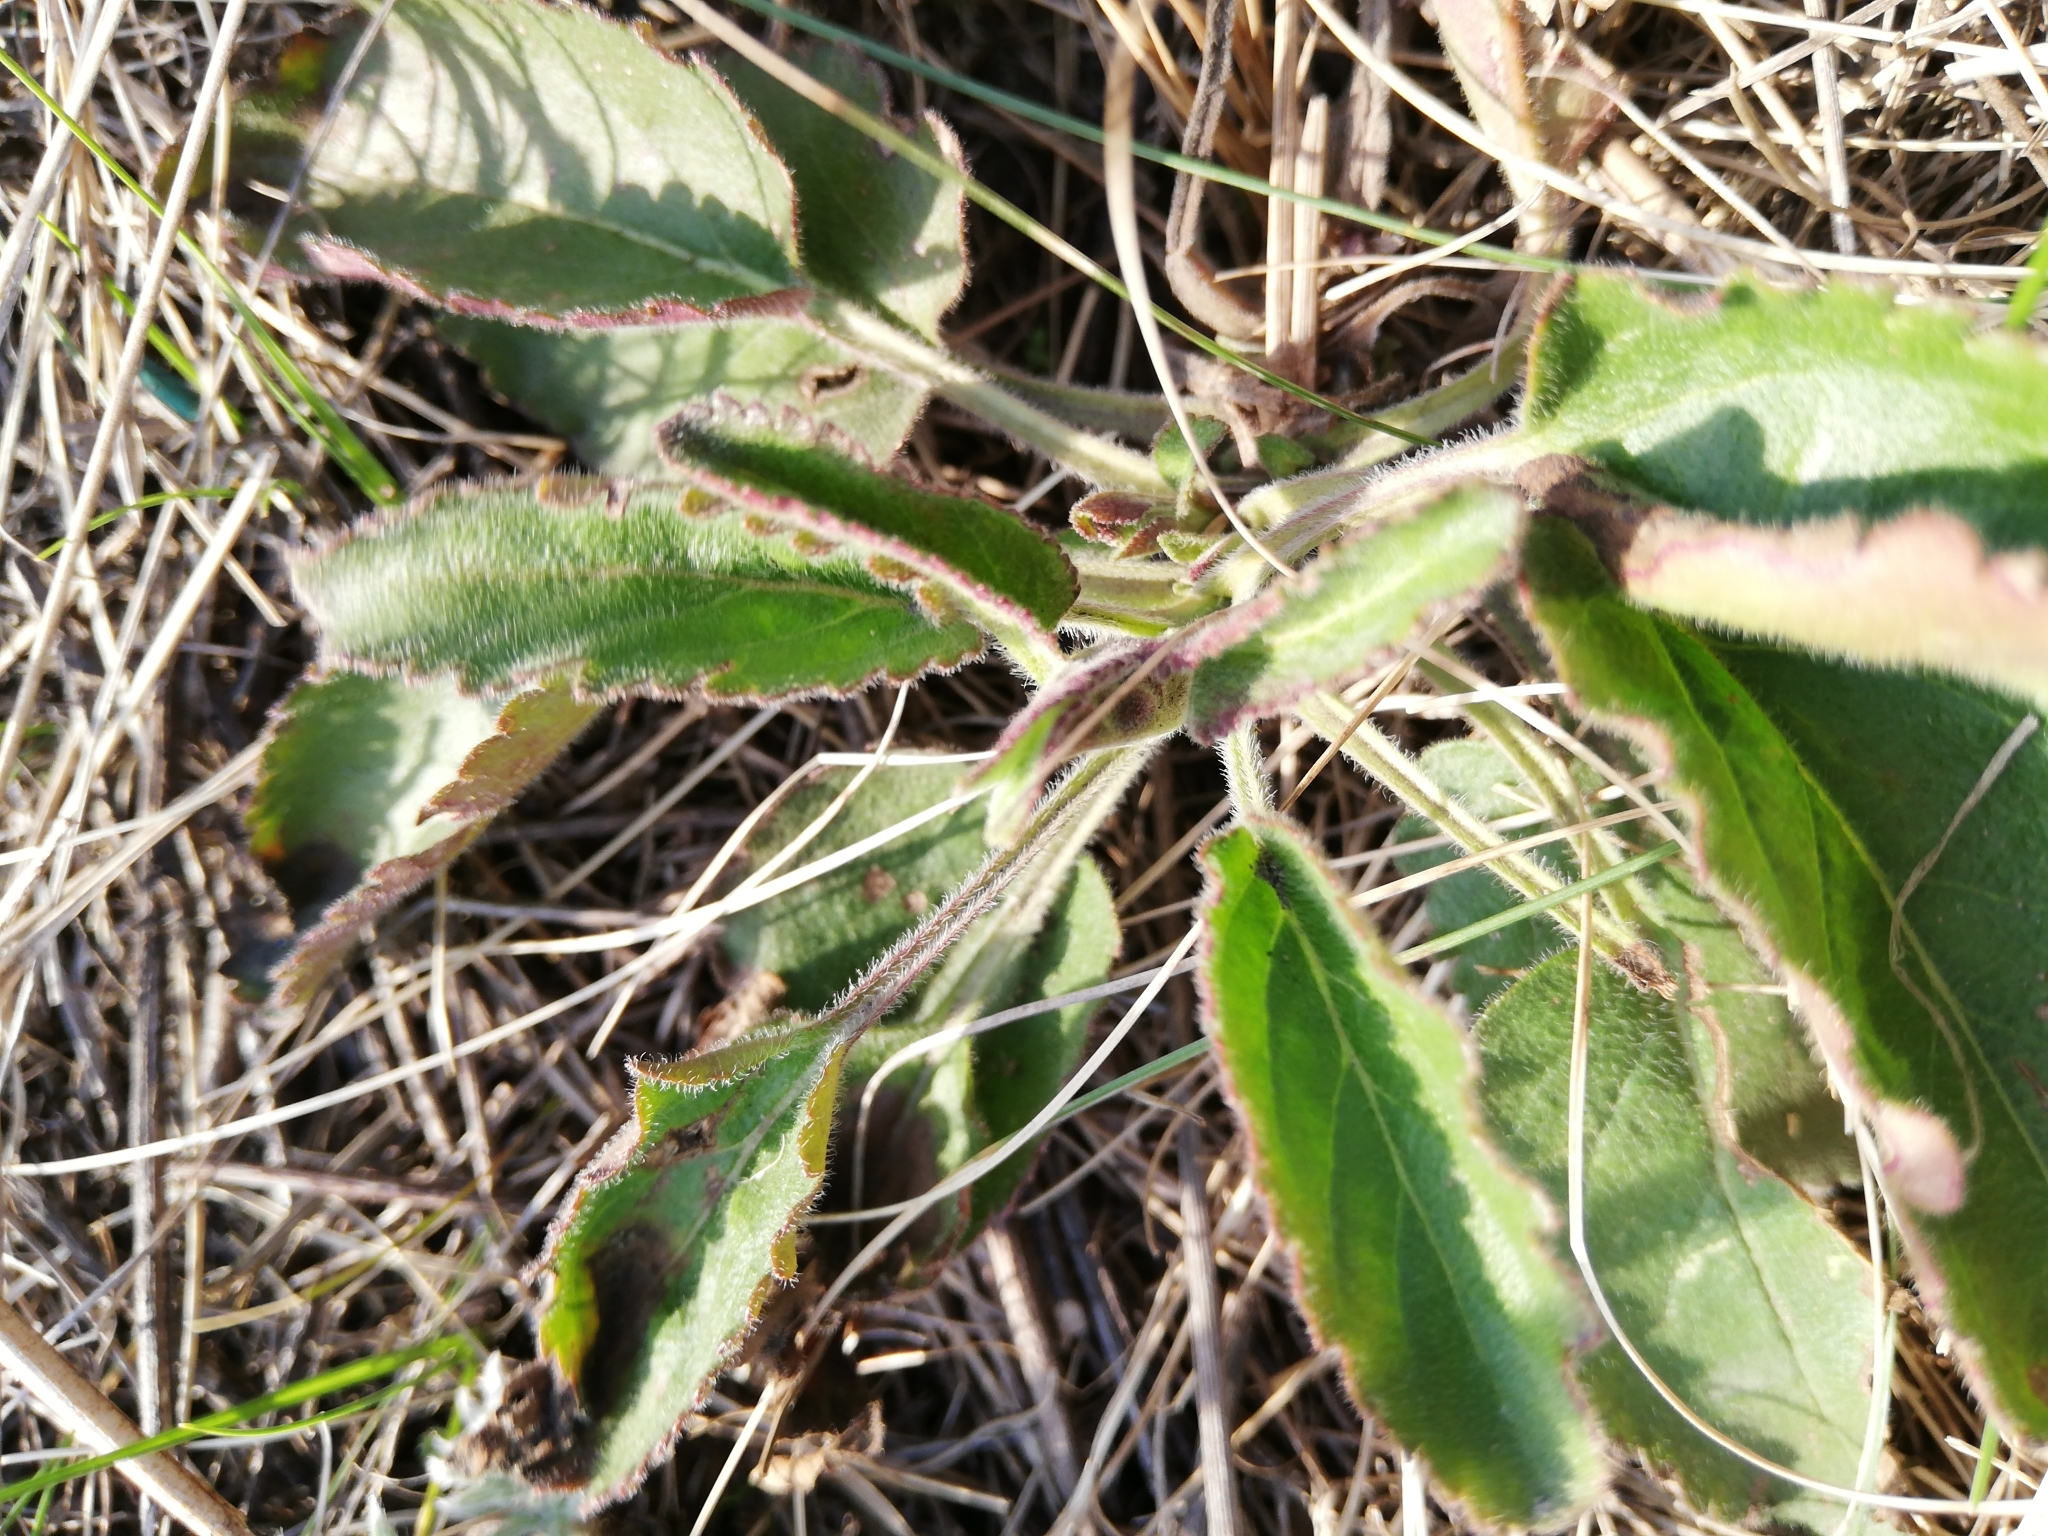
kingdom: Plantae
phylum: Tracheophyta
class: Magnoliopsida
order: Lamiales
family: Plantaginaceae
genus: Veronica
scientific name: Veronica spicata
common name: Spiked speedwell
